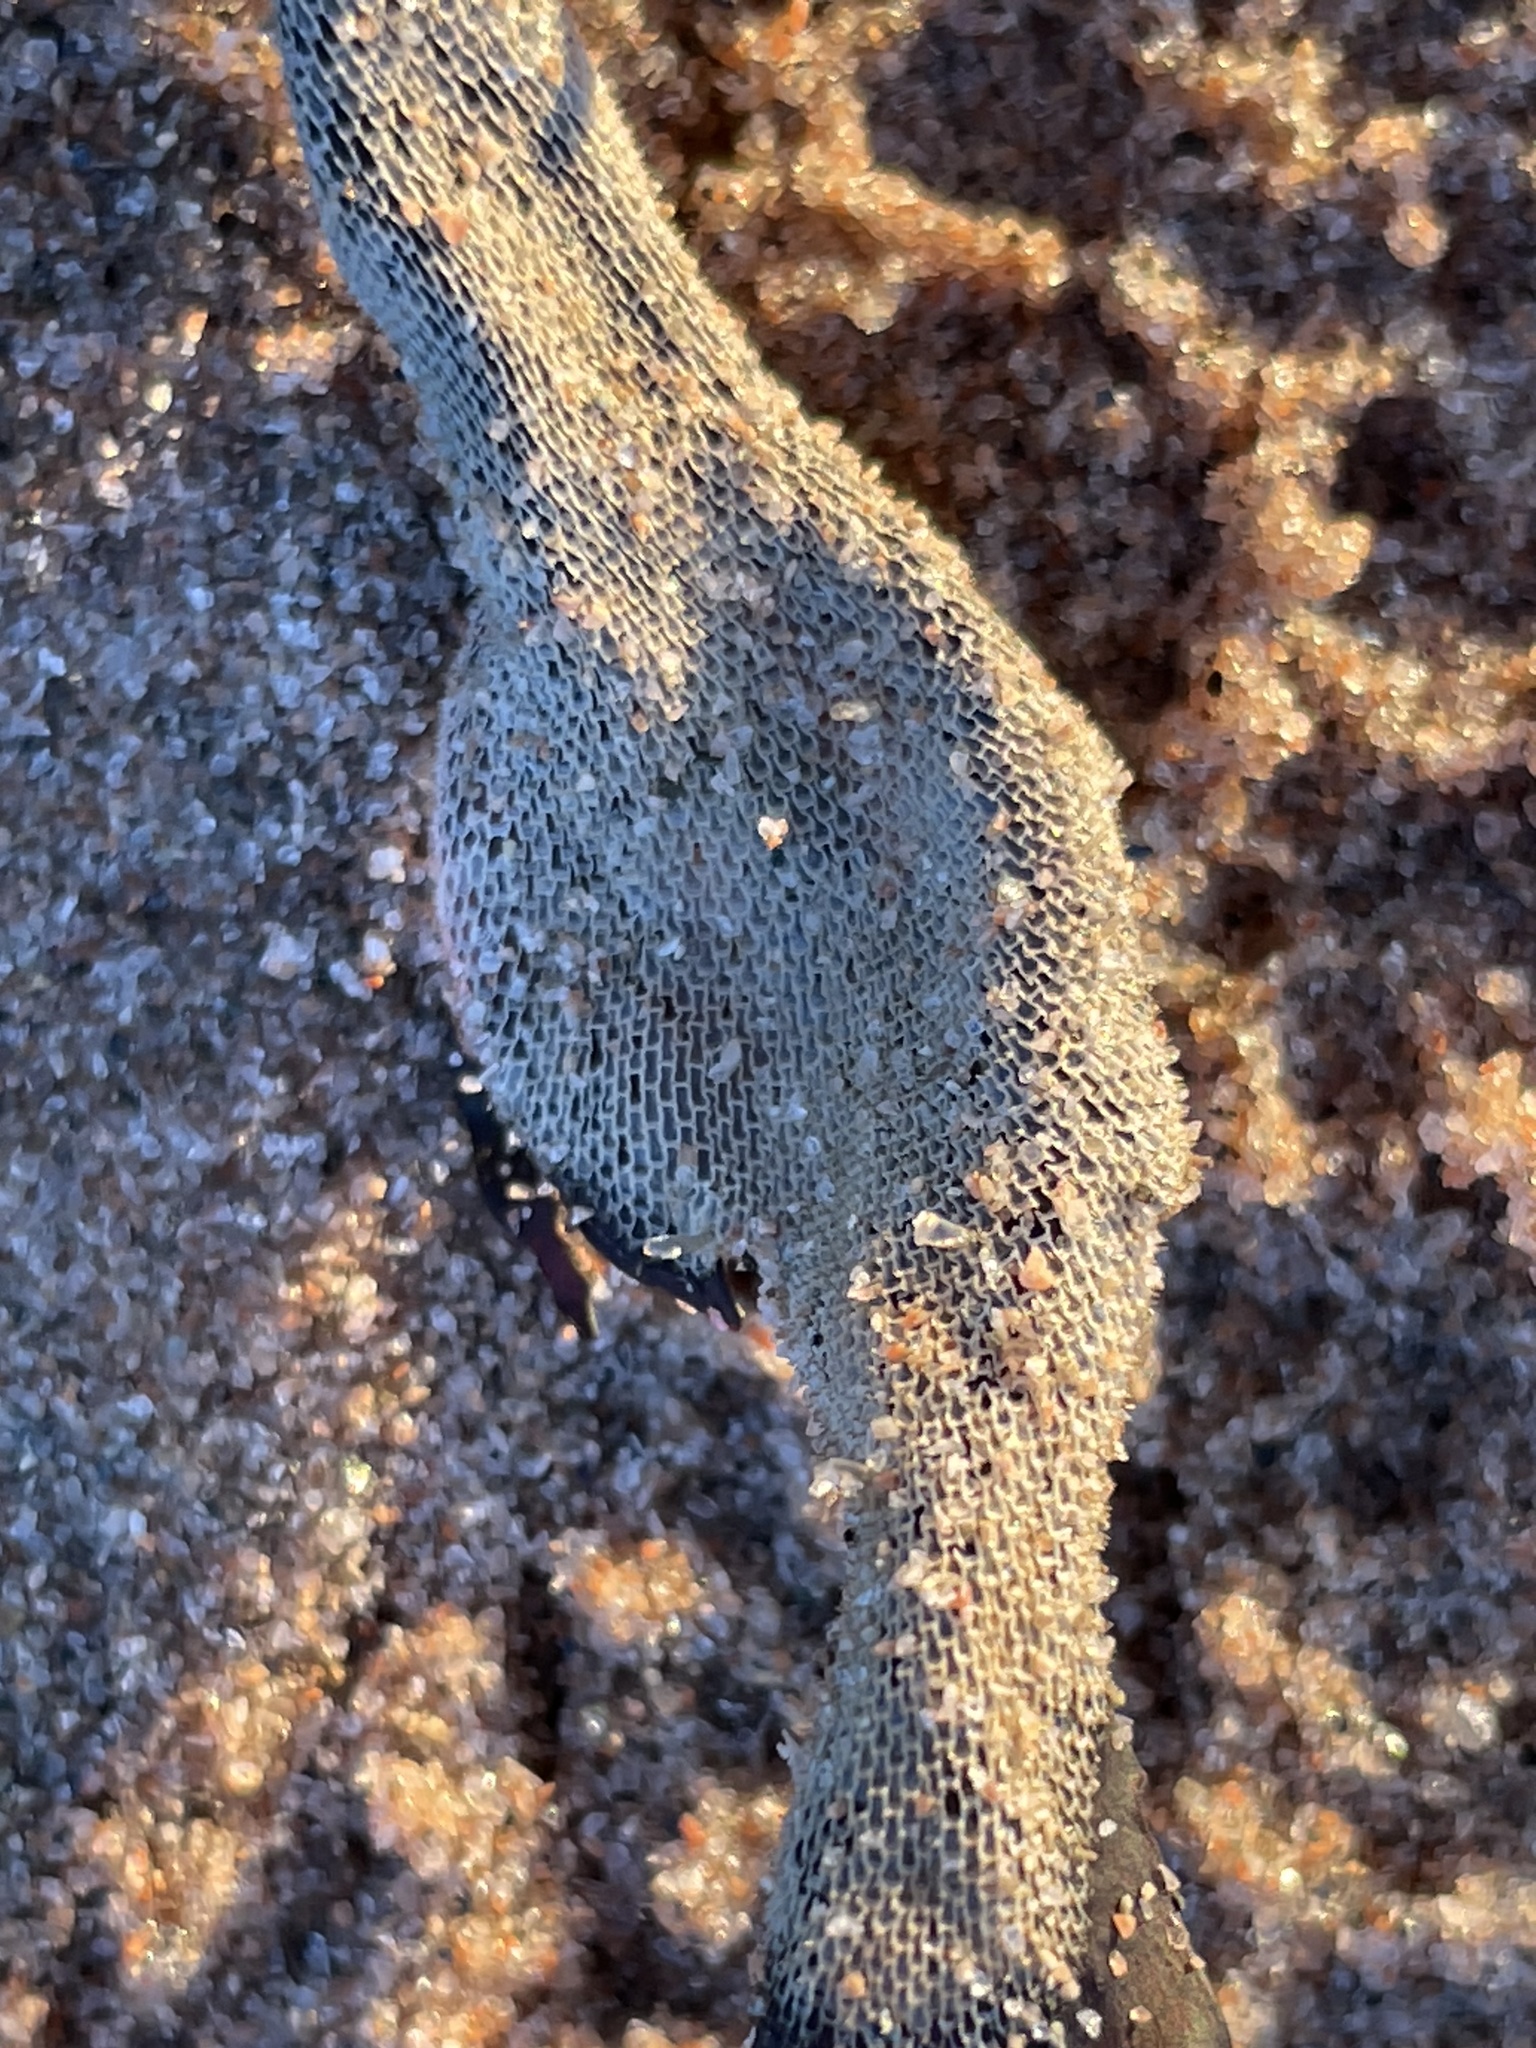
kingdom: Animalia
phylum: Bryozoa
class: Gymnolaemata
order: Cheilostomatida
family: Membraniporidae
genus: Membranipora
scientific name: Membranipora membranacea
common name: Sea mat
